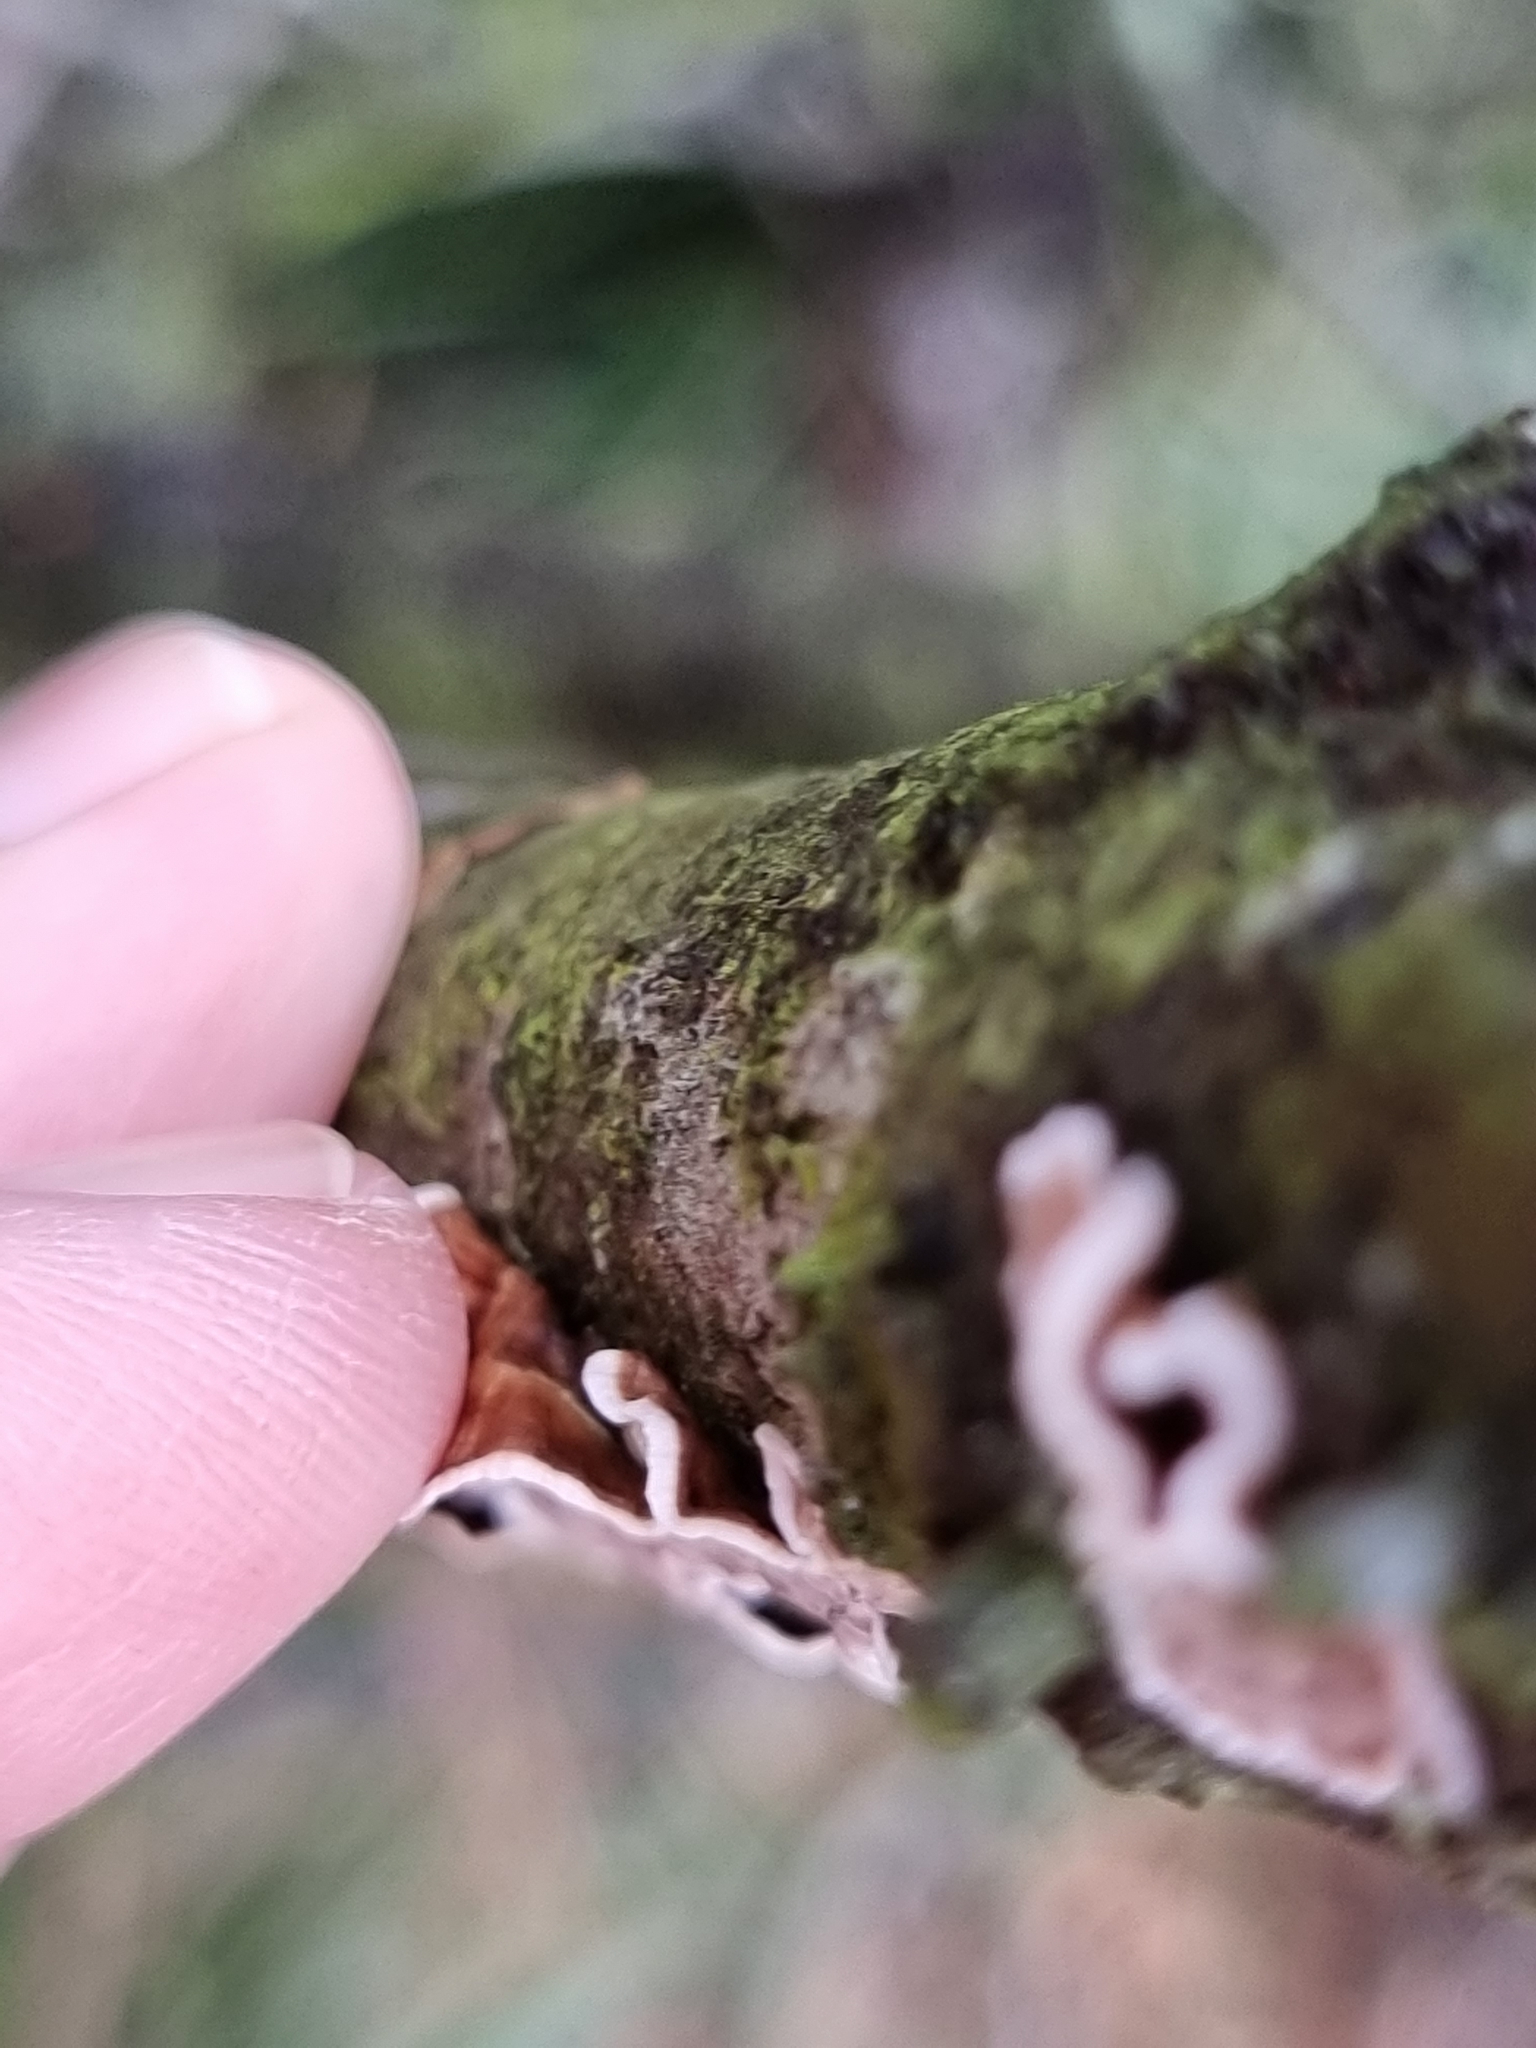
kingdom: Fungi
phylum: Basidiomycota
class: Agaricomycetes
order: Russulales
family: Stereaceae
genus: Xylobolus
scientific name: Xylobolus illudens
